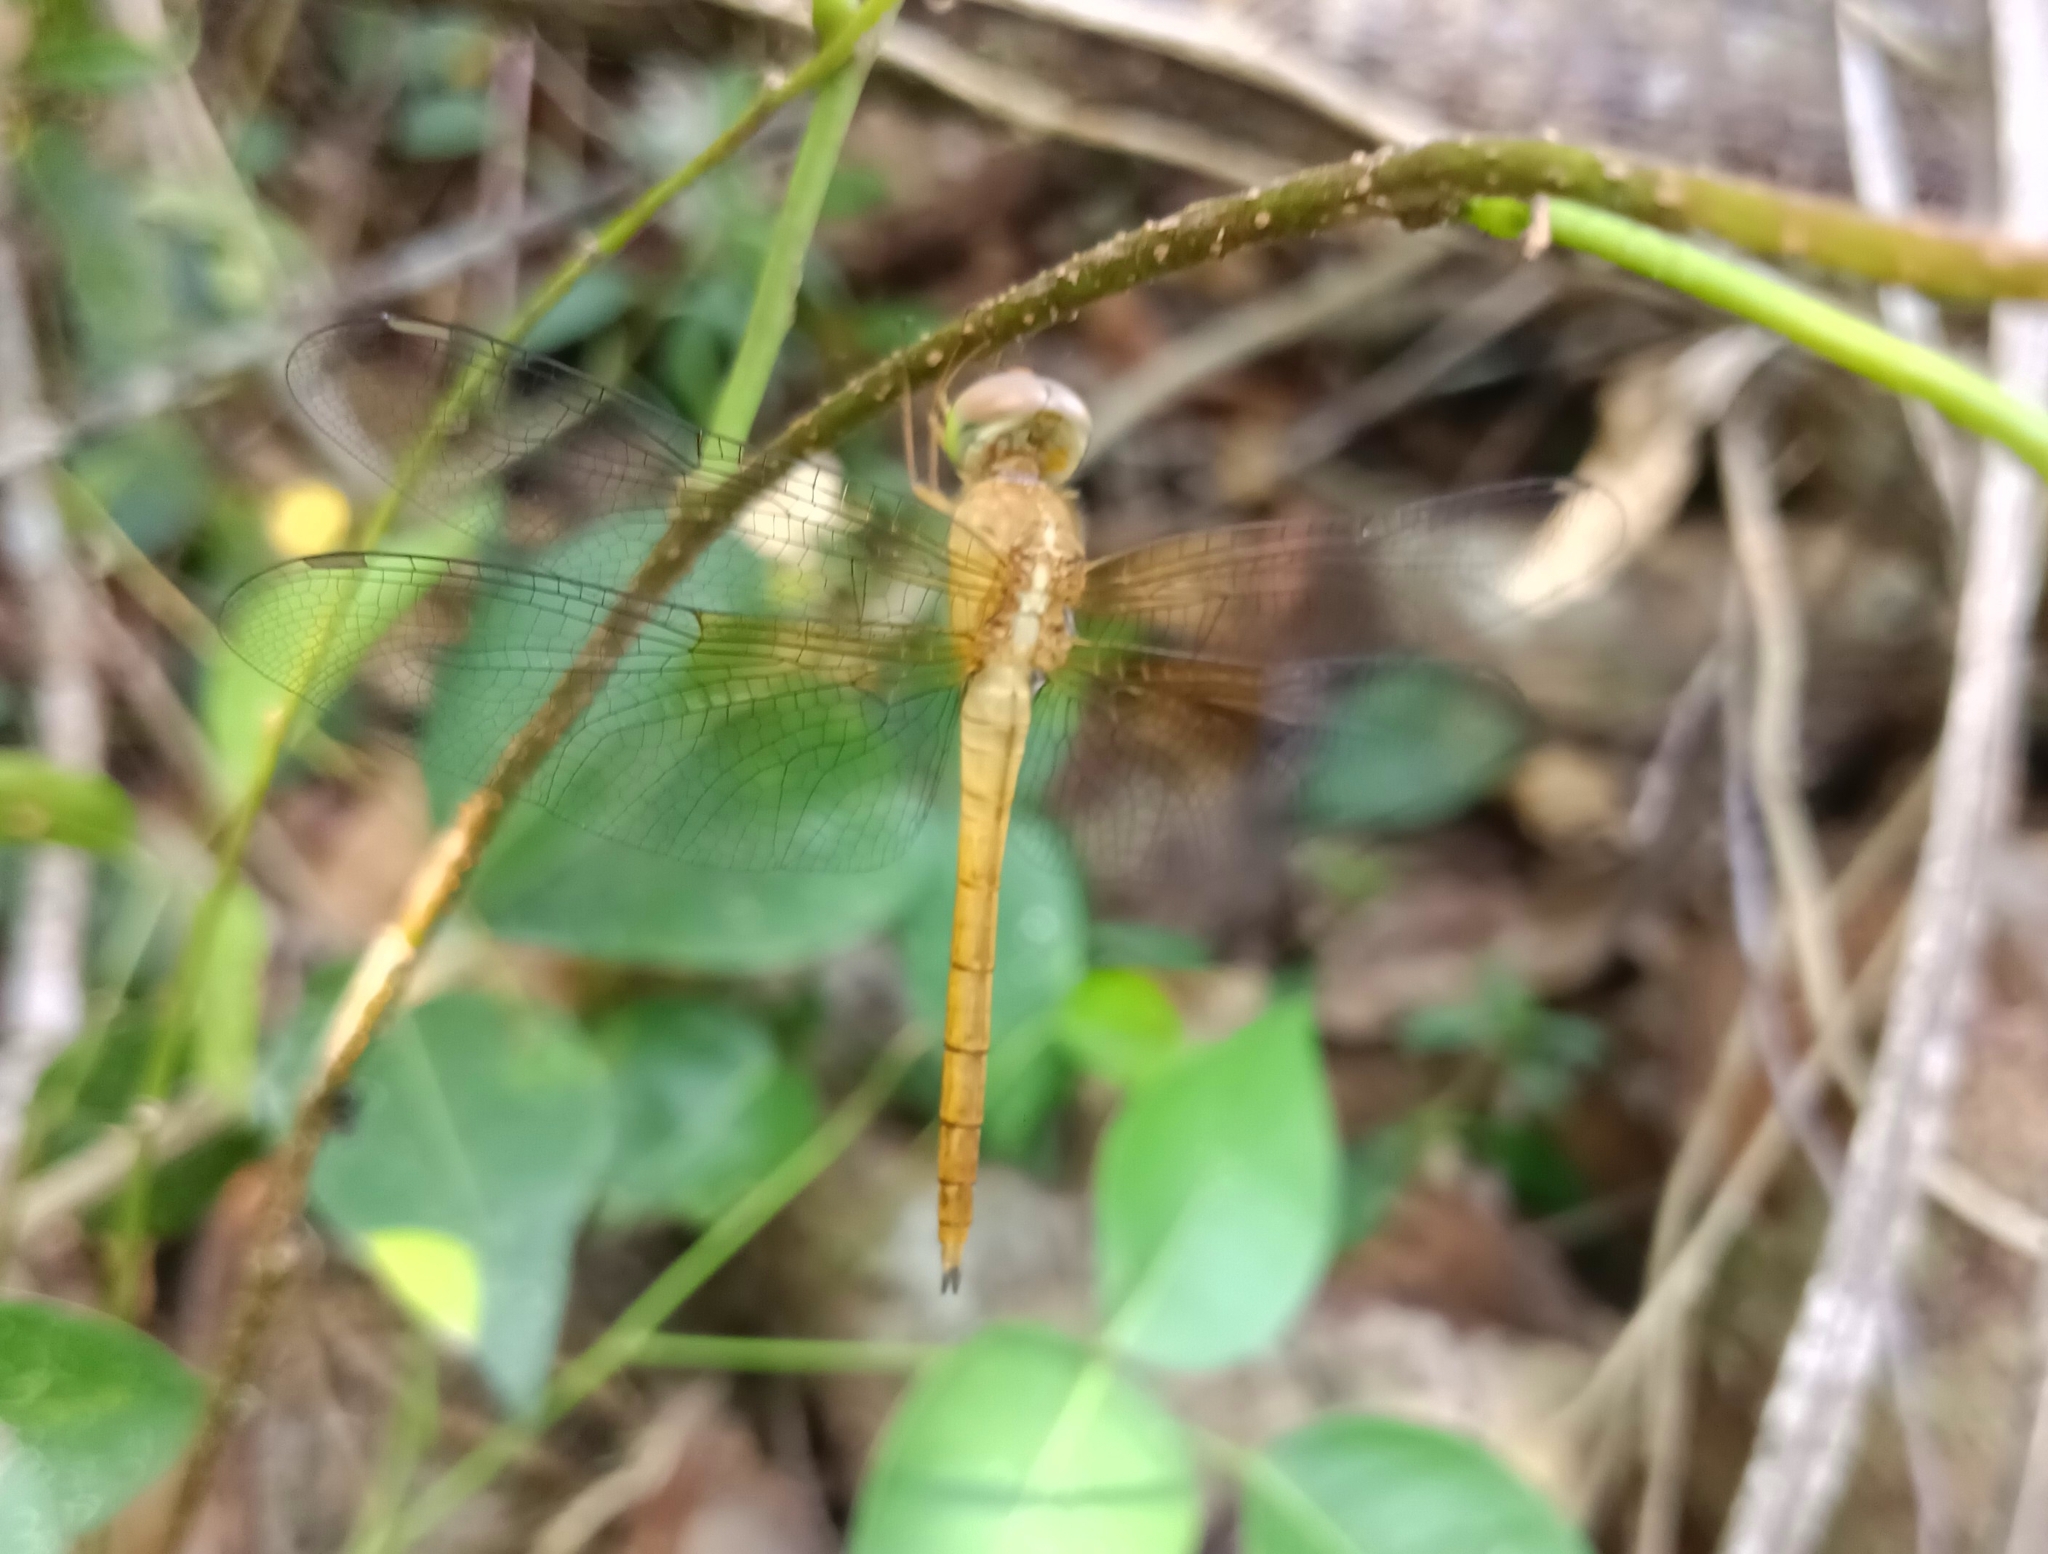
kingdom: Animalia
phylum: Arthropoda
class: Insecta
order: Odonata
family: Libellulidae
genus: Tholymis
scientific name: Tholymis tillarga
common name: Coral-tailed cloud wing
